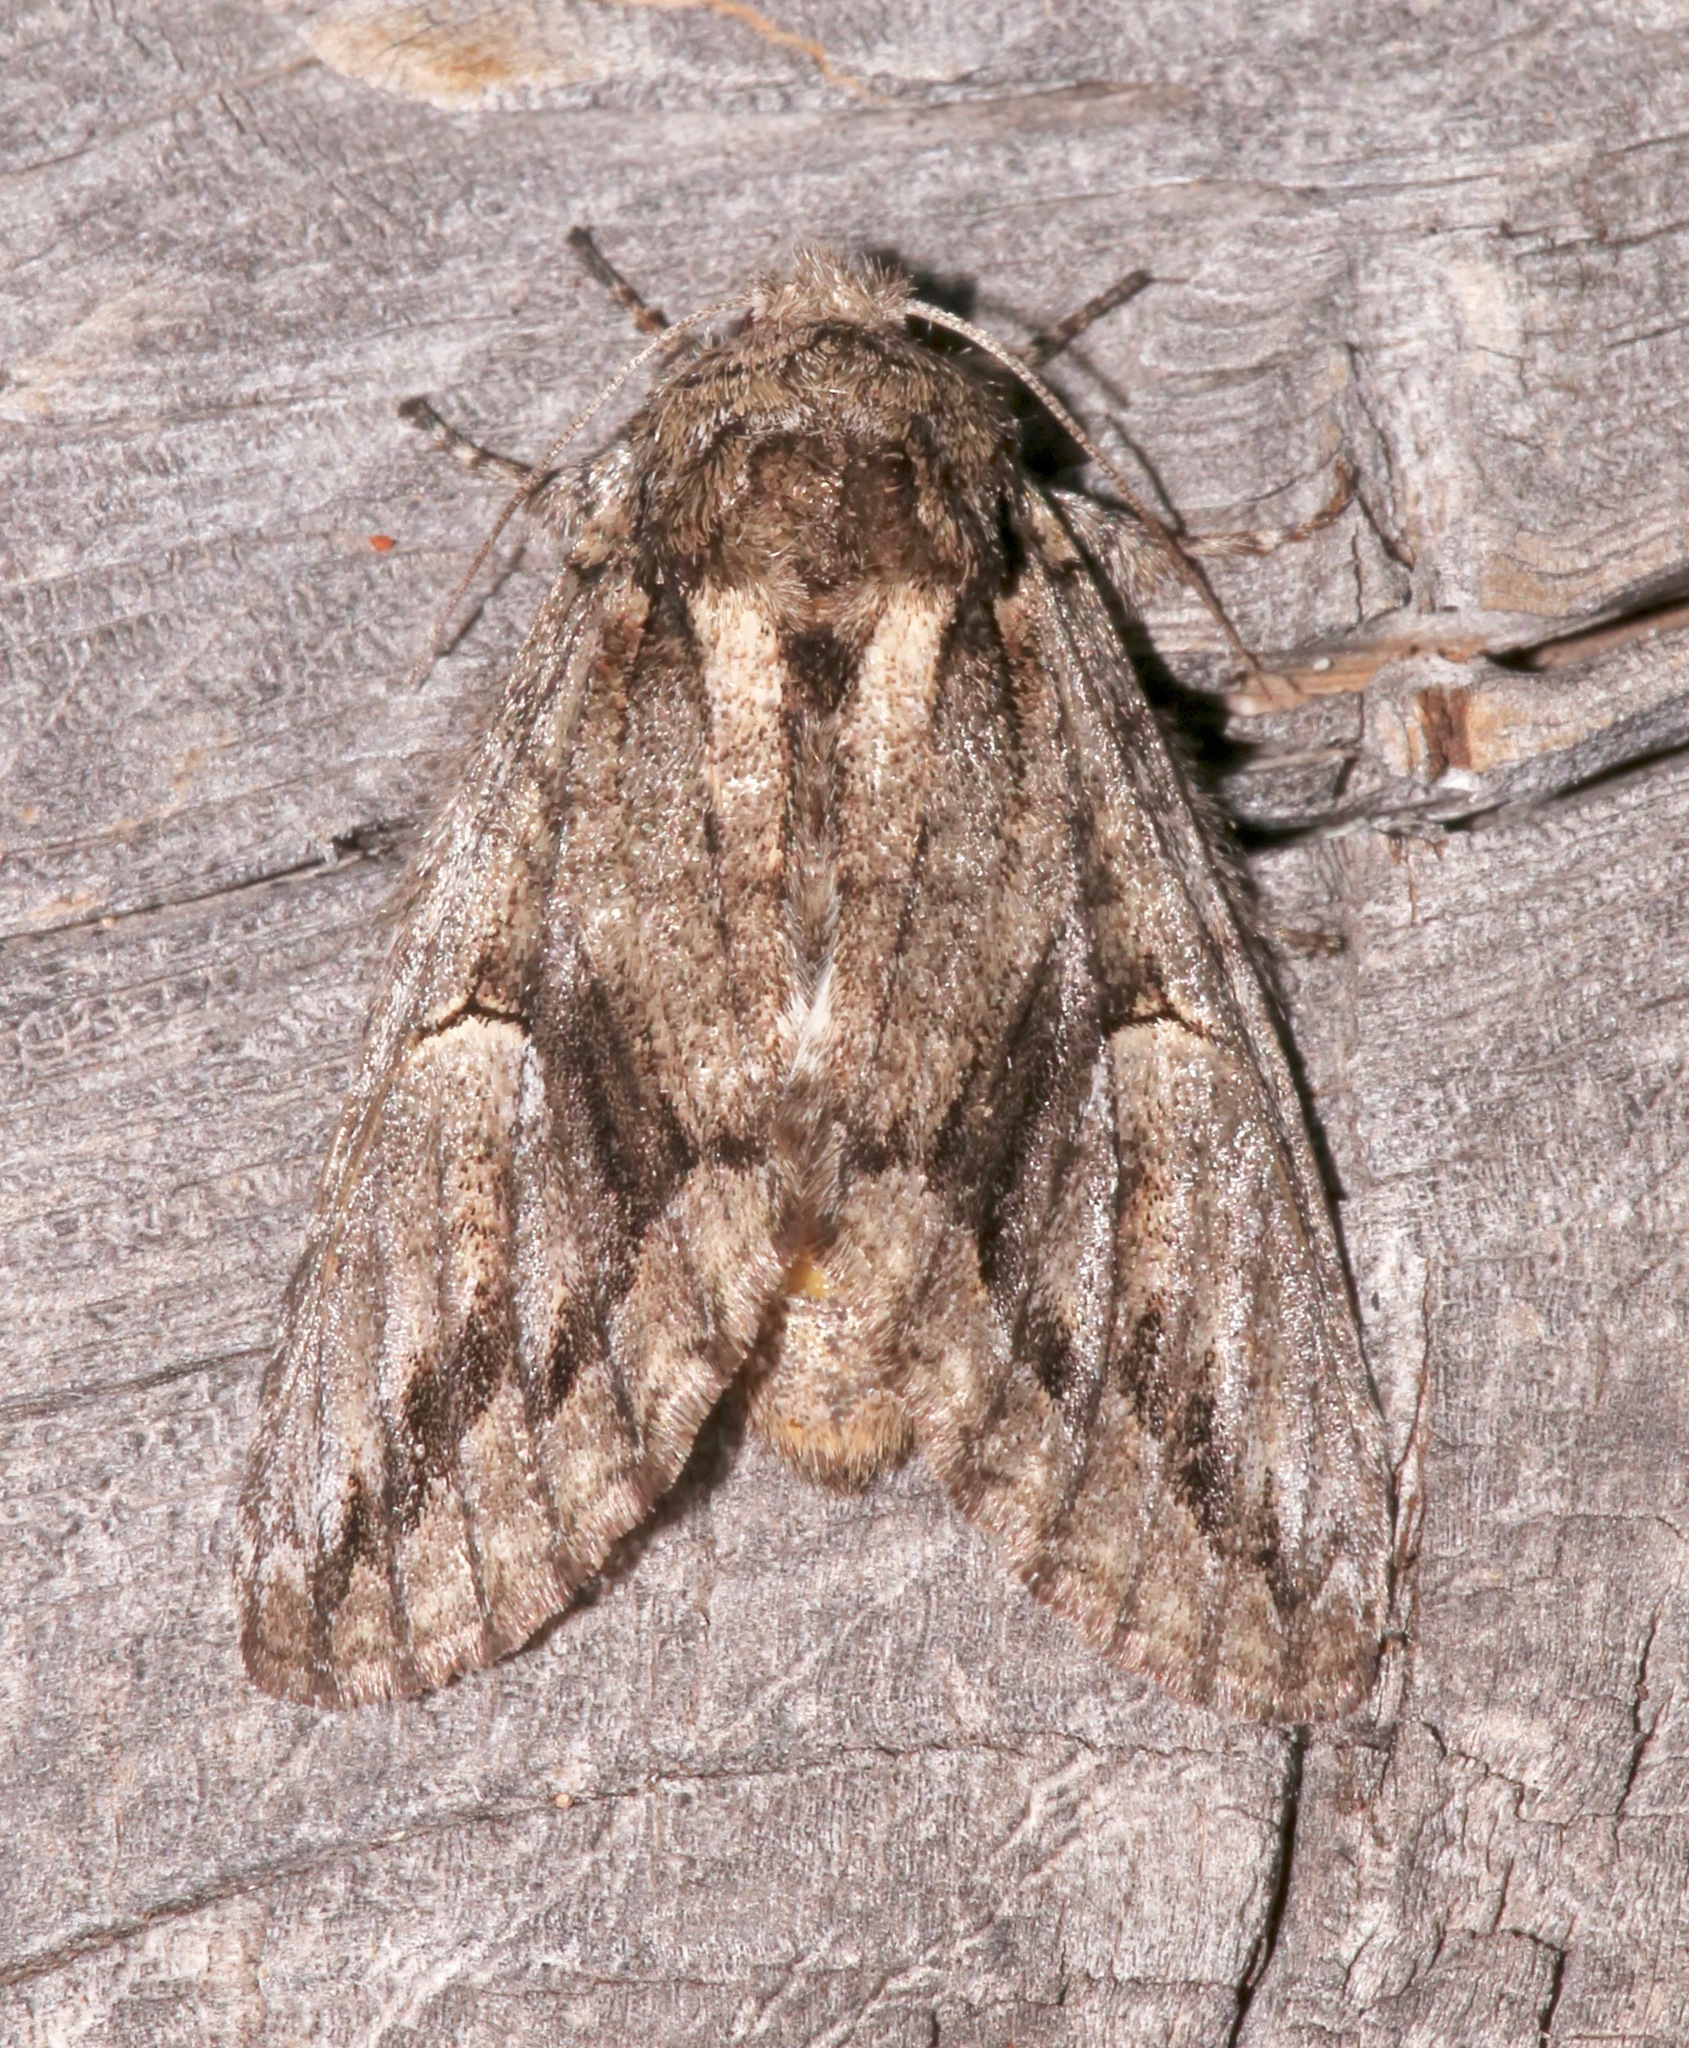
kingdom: Animalia
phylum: Arthropoda
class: Insecta
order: Lepidoptera
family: Notodontidae
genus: Heterocampa
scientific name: Heterocampa averna
